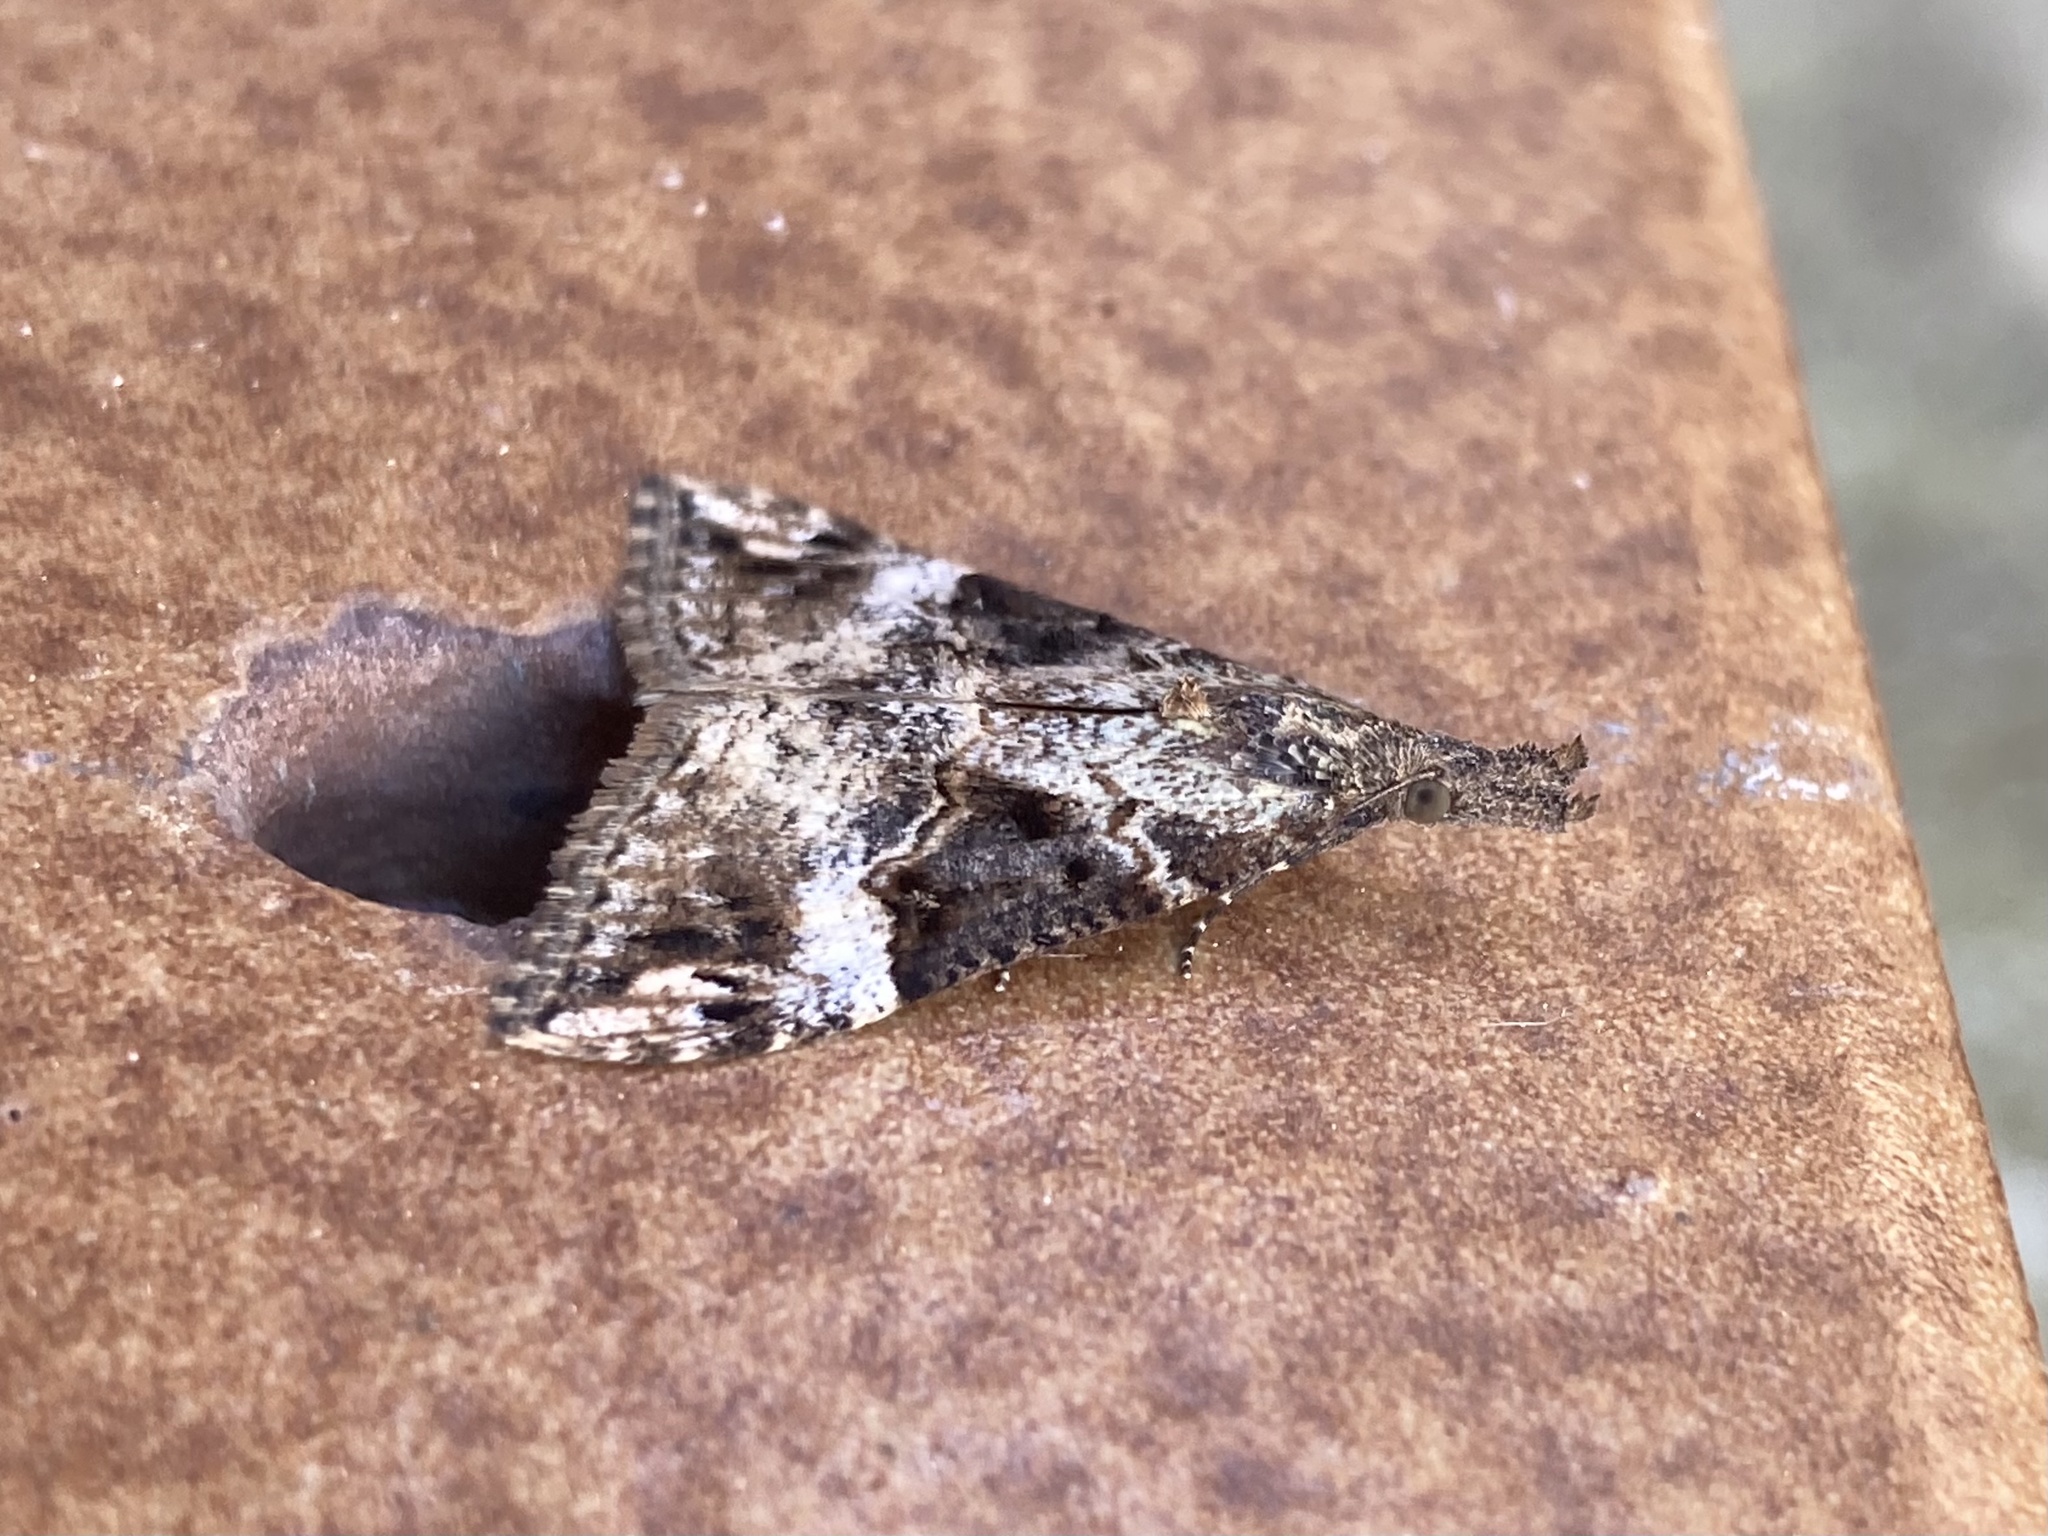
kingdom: Animalia
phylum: Arthropoda
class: Insecta
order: Lepidoptera
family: Erebidae
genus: Hypena
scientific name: Hypena obsitalis
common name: Bloxworth snout
